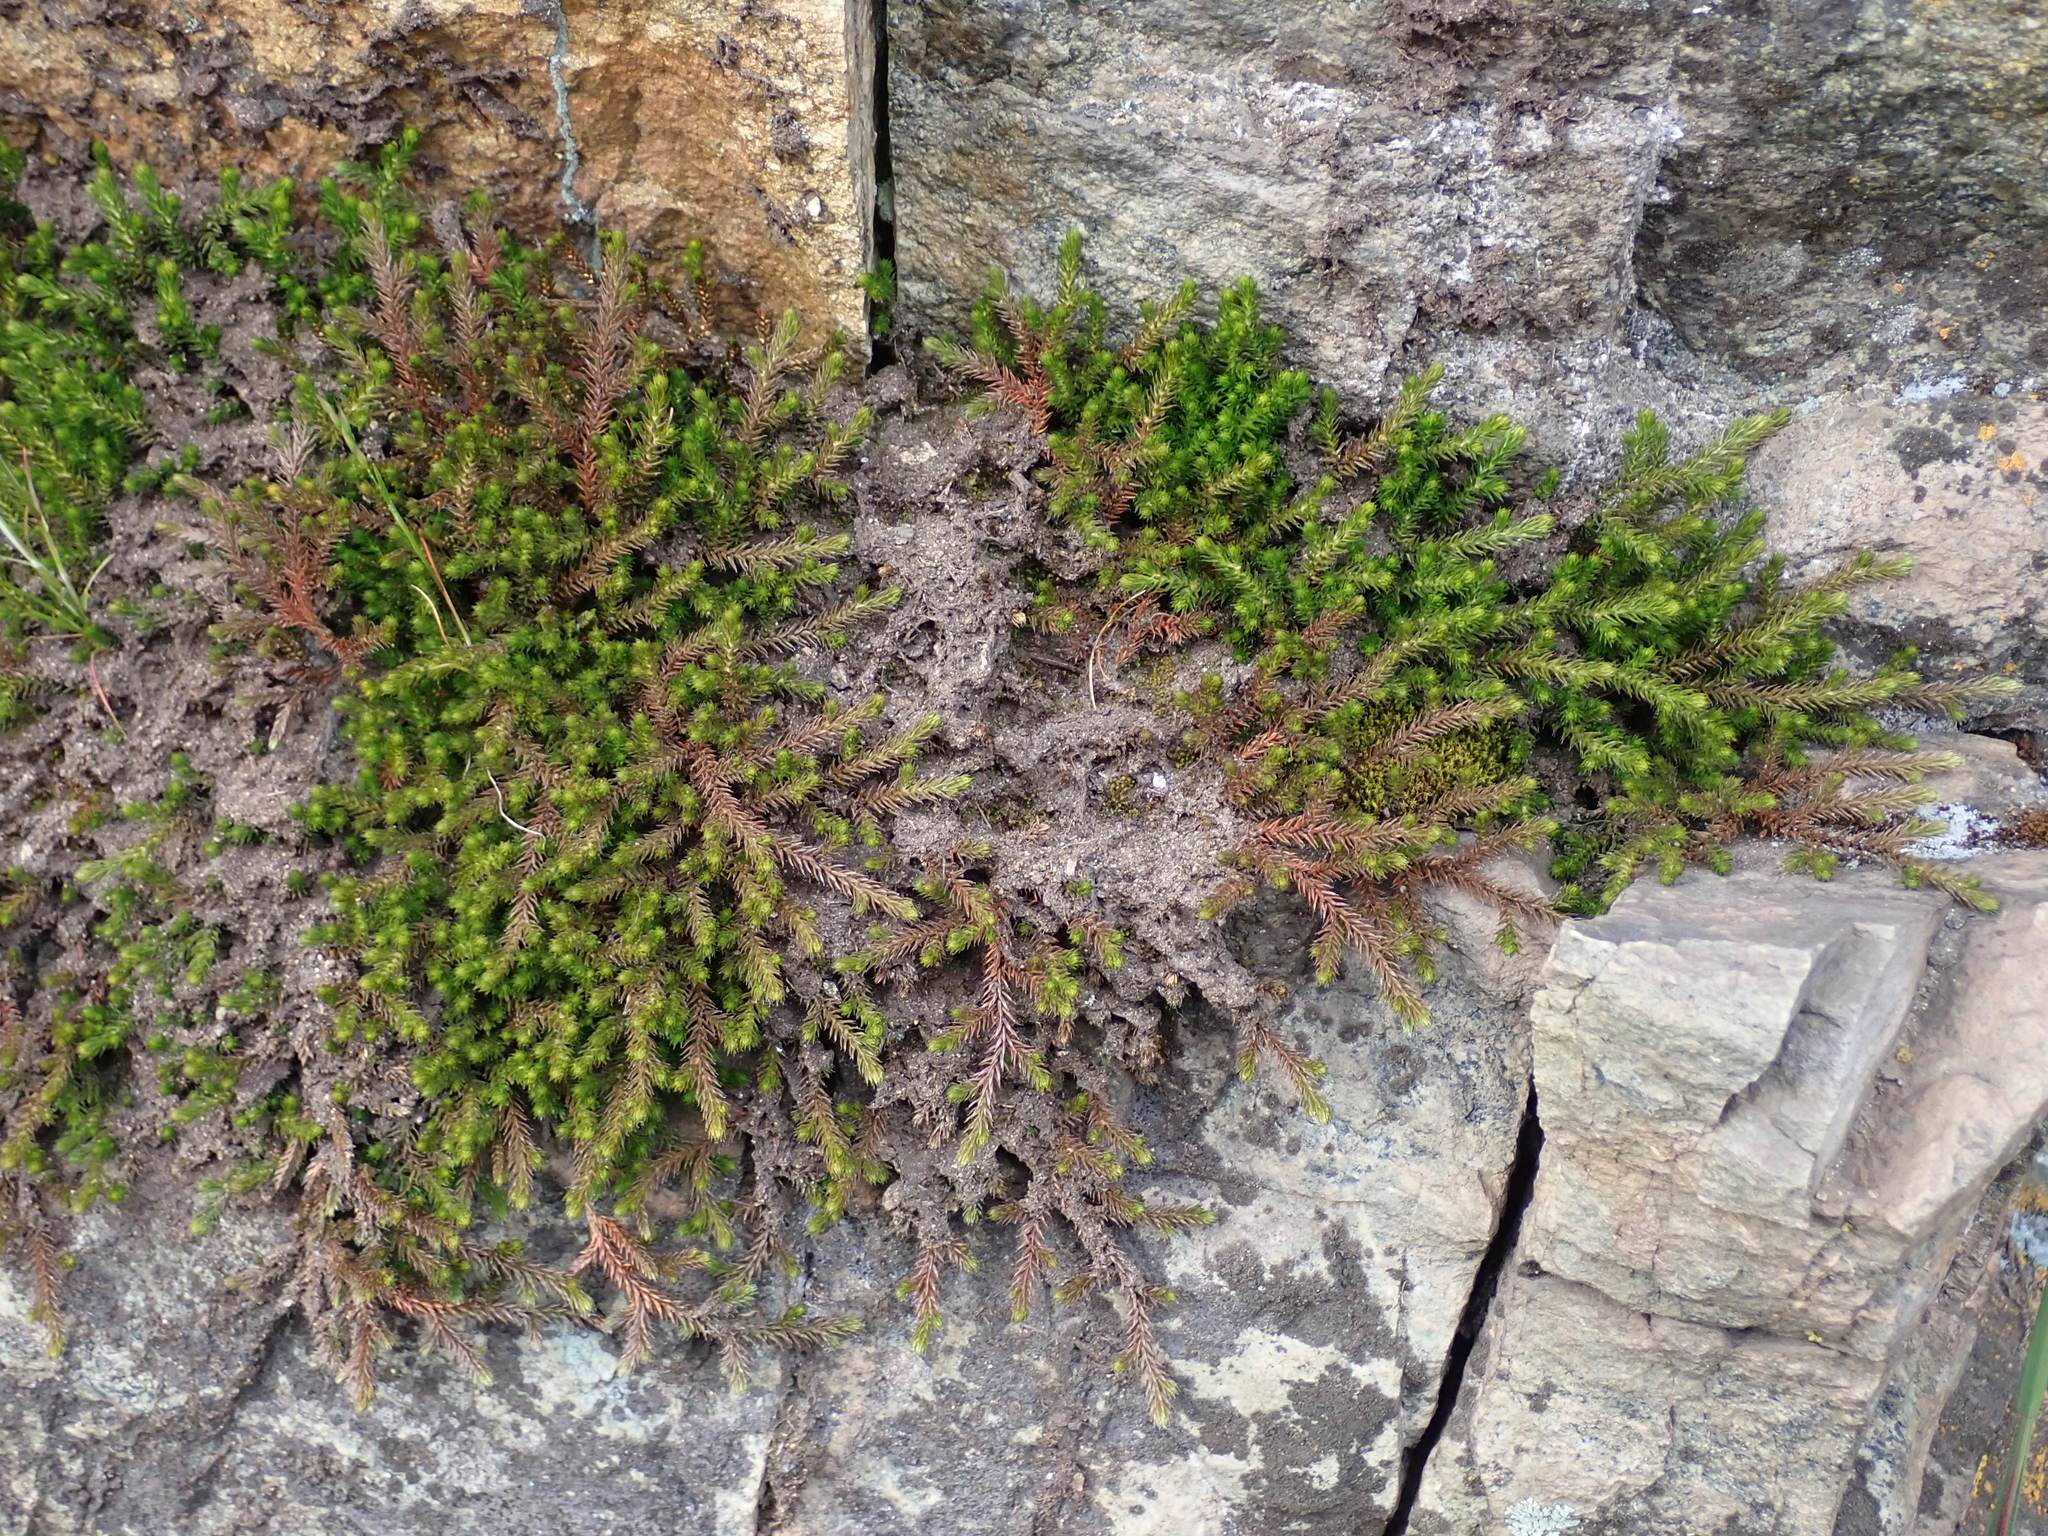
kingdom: Plantae
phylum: Tracheophyta
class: Lycopodiopsida
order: Selaginellales
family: Selaginellaceae
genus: Selaginella
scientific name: Selaginella wallacei
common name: Wallace's selaginella
